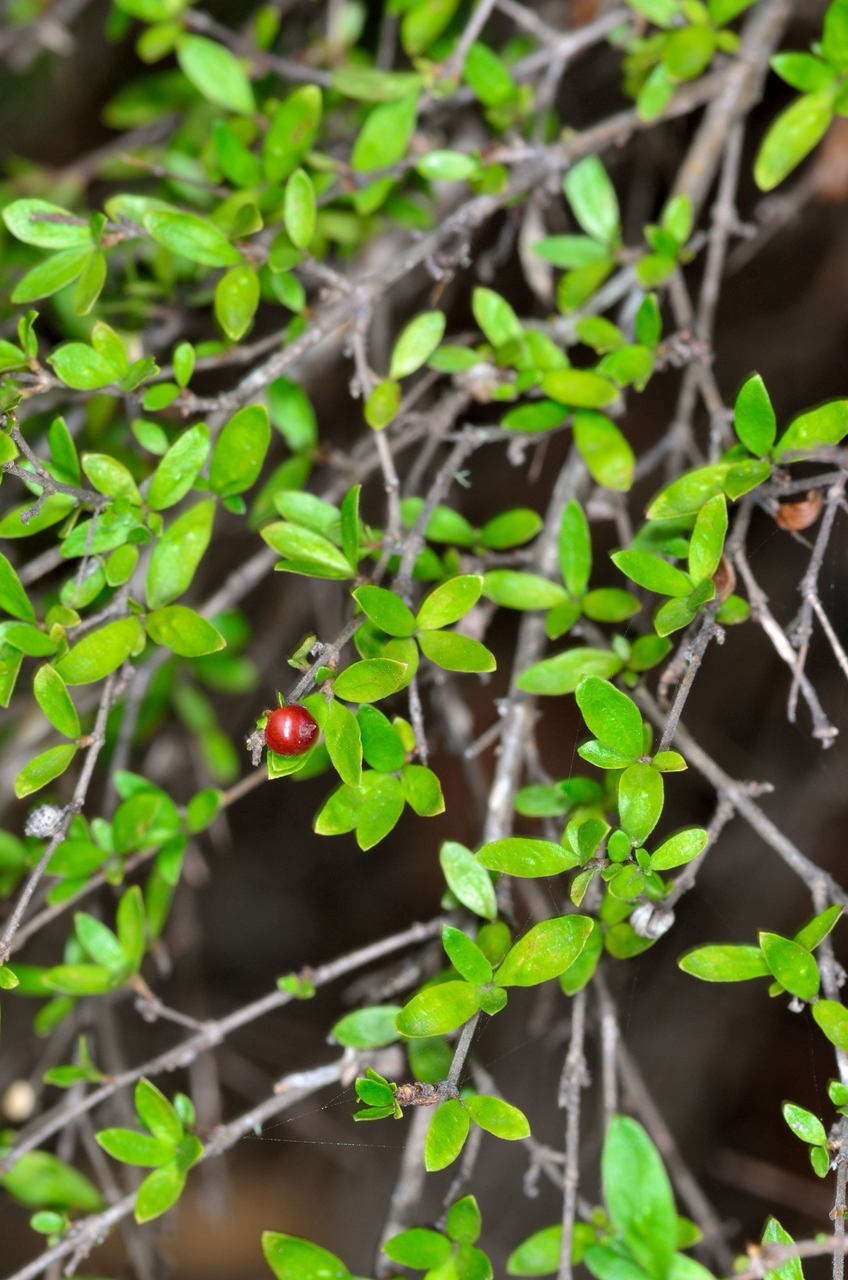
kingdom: Plantae
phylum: Tracheophyta
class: Magnoliopsida
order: Gentianales
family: Rubiaceae
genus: Coprosma
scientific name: Coprosma quadrifida
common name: Prickly currantbush
